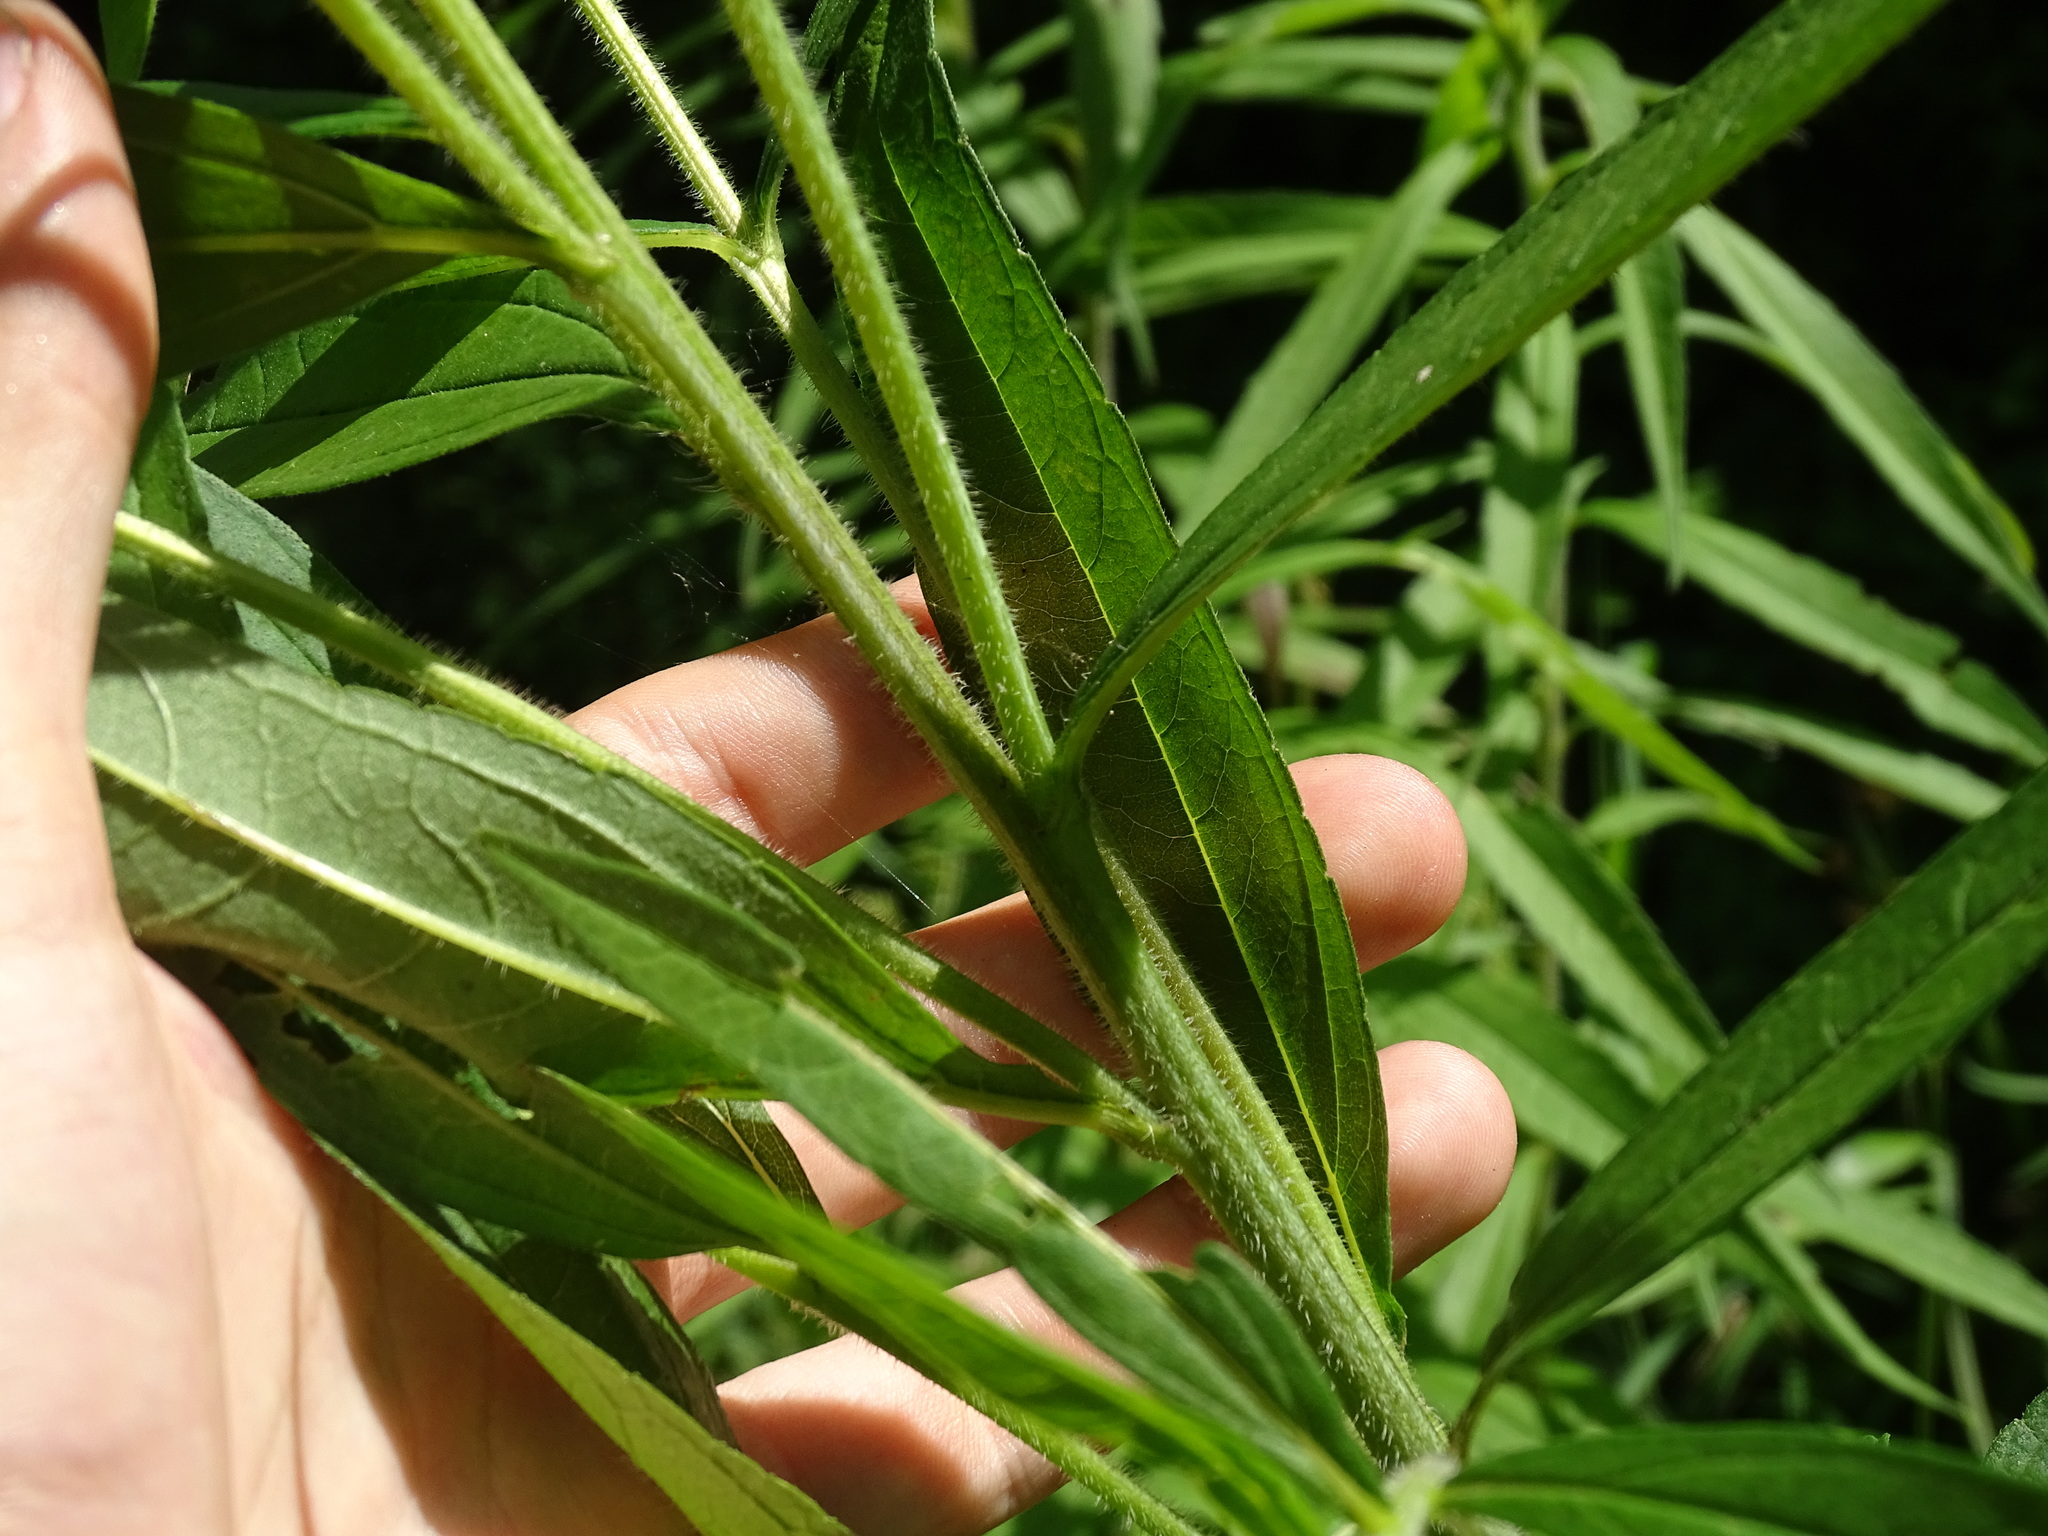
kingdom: Plantae
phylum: Tracheophyta
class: Magnoliopsida
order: Asterales
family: Asteraceae
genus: Helianthus
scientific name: Helianthus giganteus
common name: Giant sunflower
